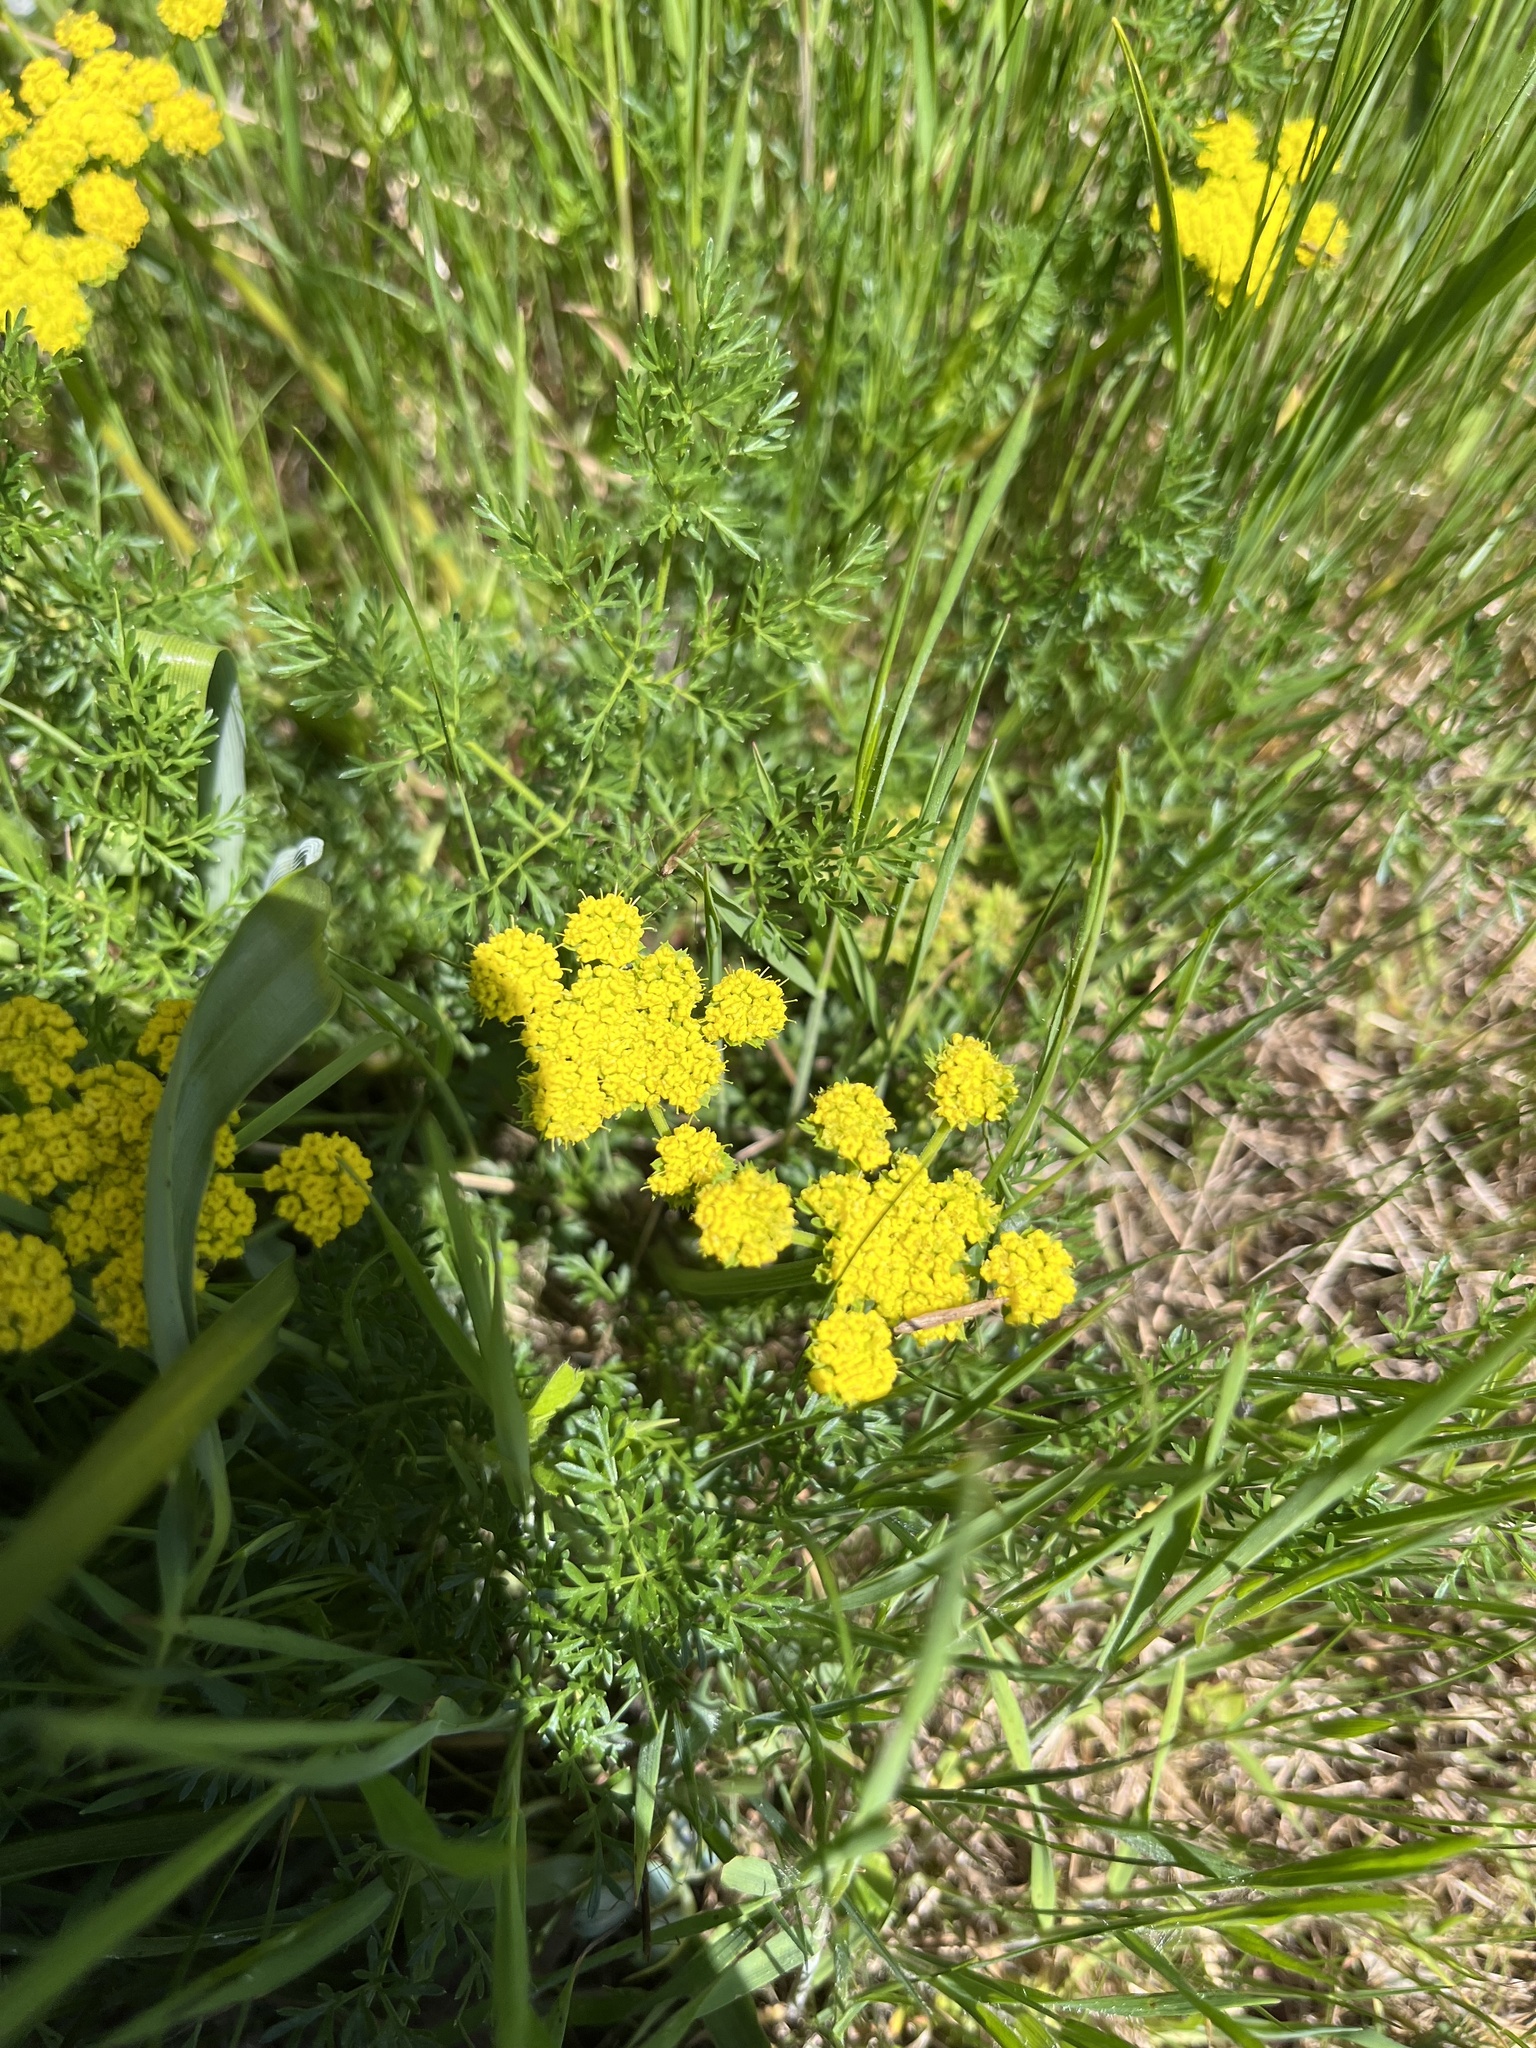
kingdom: Plantae
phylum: Tracheophyta
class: Magnoliopsida
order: Apiales
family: Apiaceae
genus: Lomatium
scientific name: Lomatium utriculatum
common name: Fine-leaf desert-parsley
